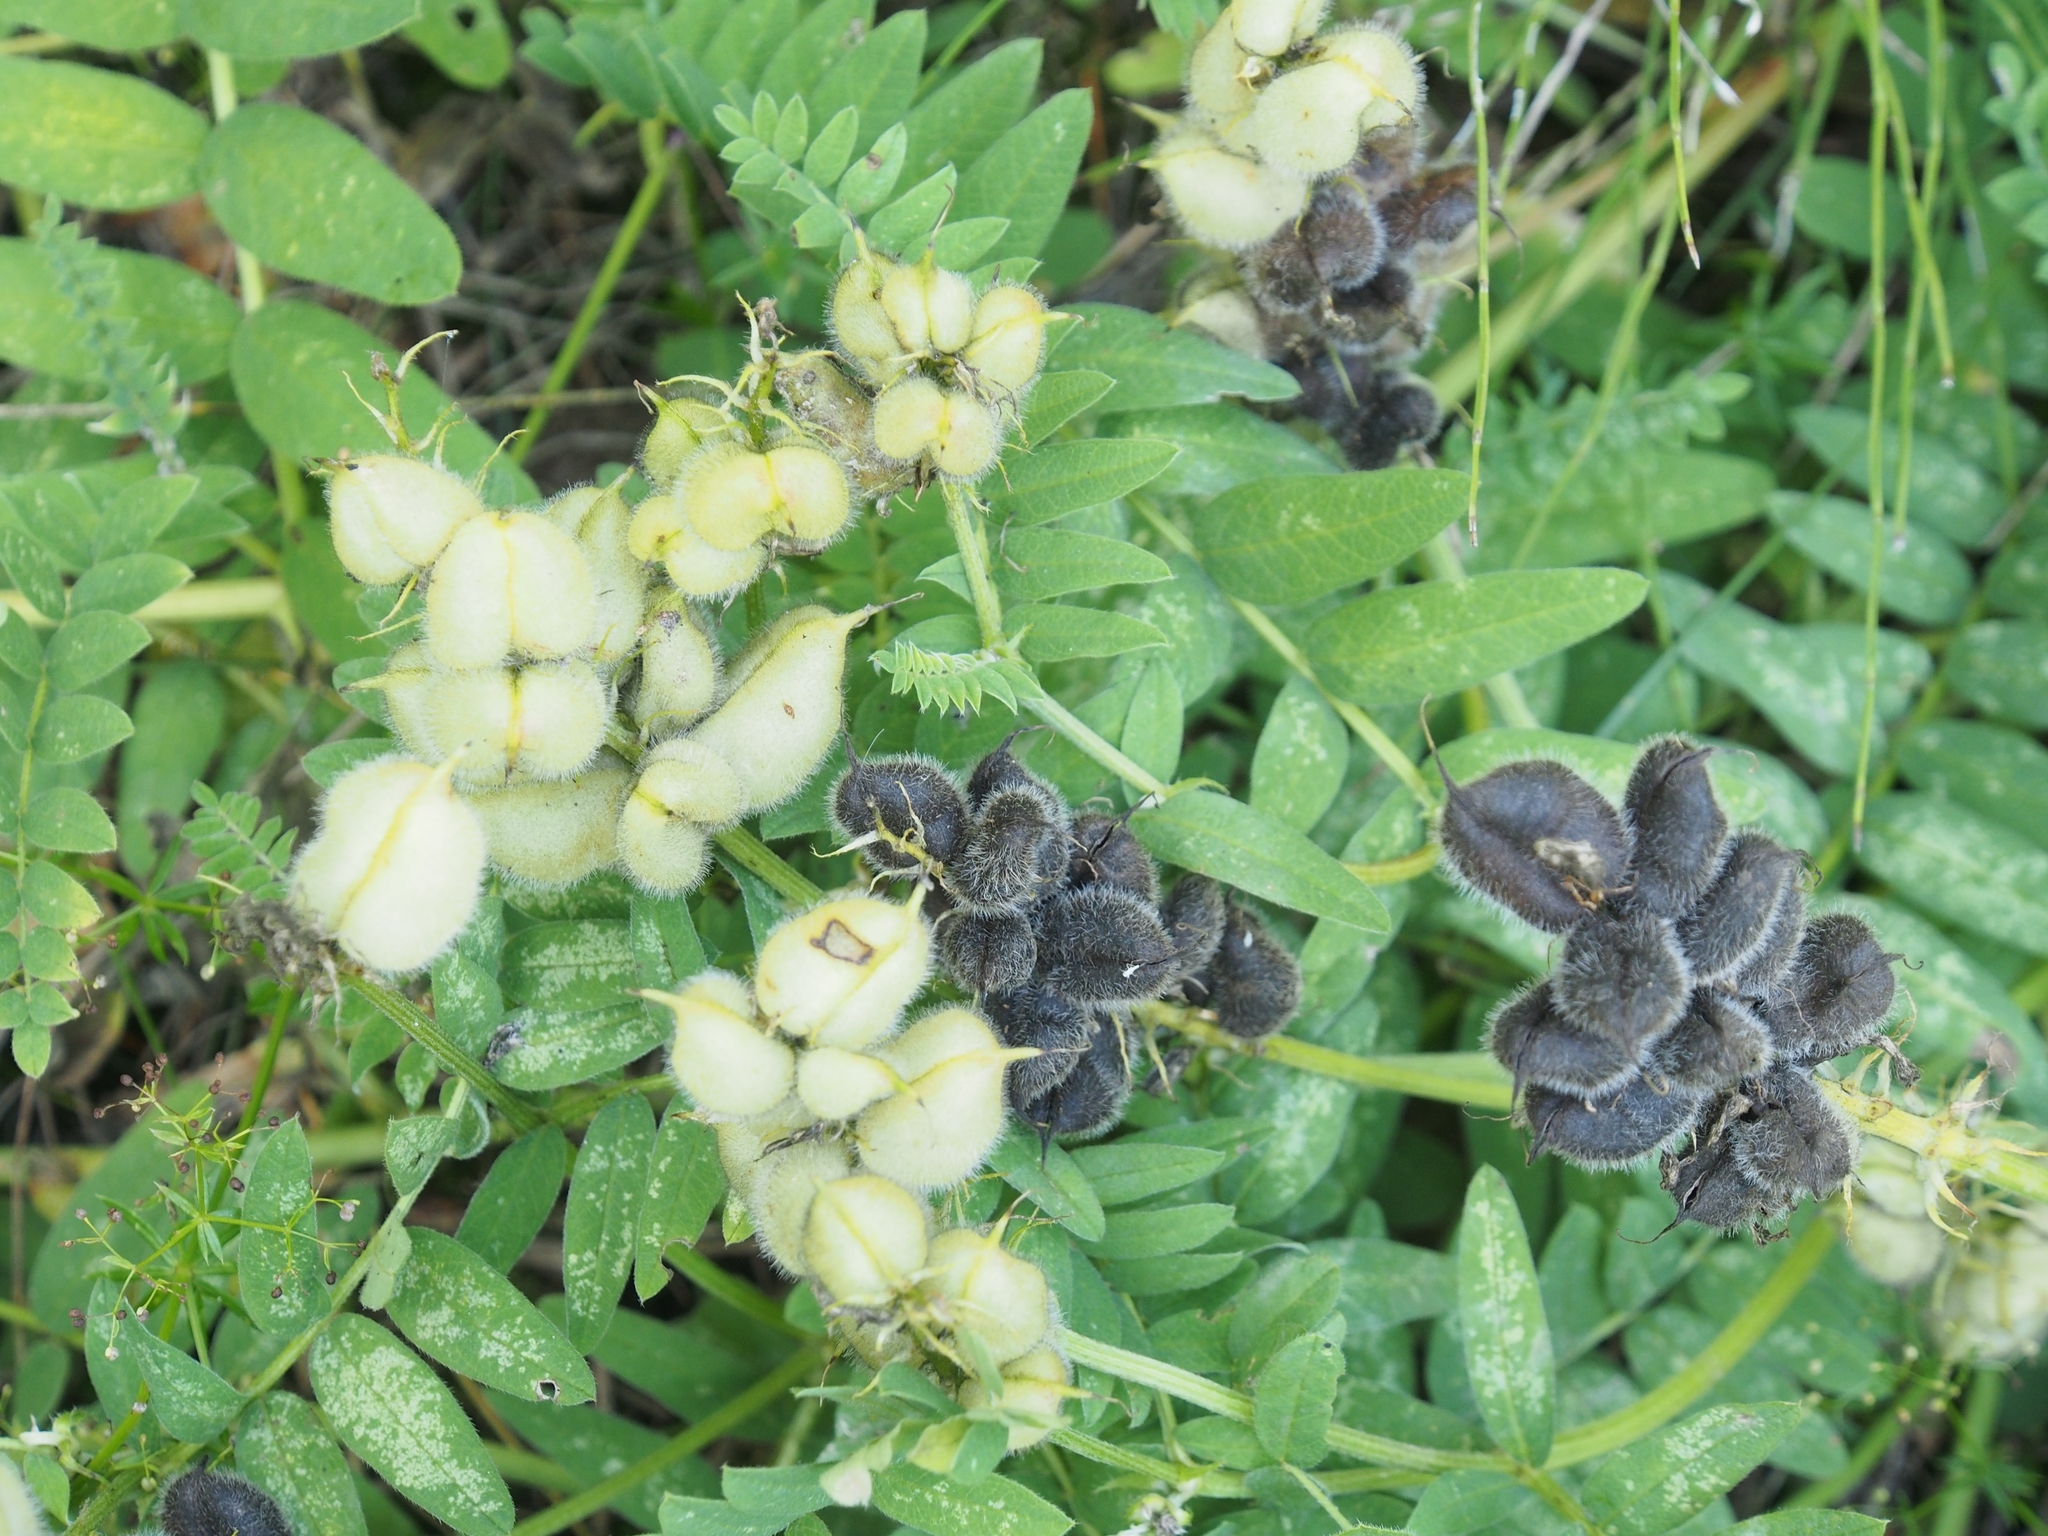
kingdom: Plantae
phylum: Tracheophyta
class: Magnoliopsida
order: Fabales
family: Fabaceae
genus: Astragalus
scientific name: Astragalus cicer
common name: Chick-pea milk-vetch
